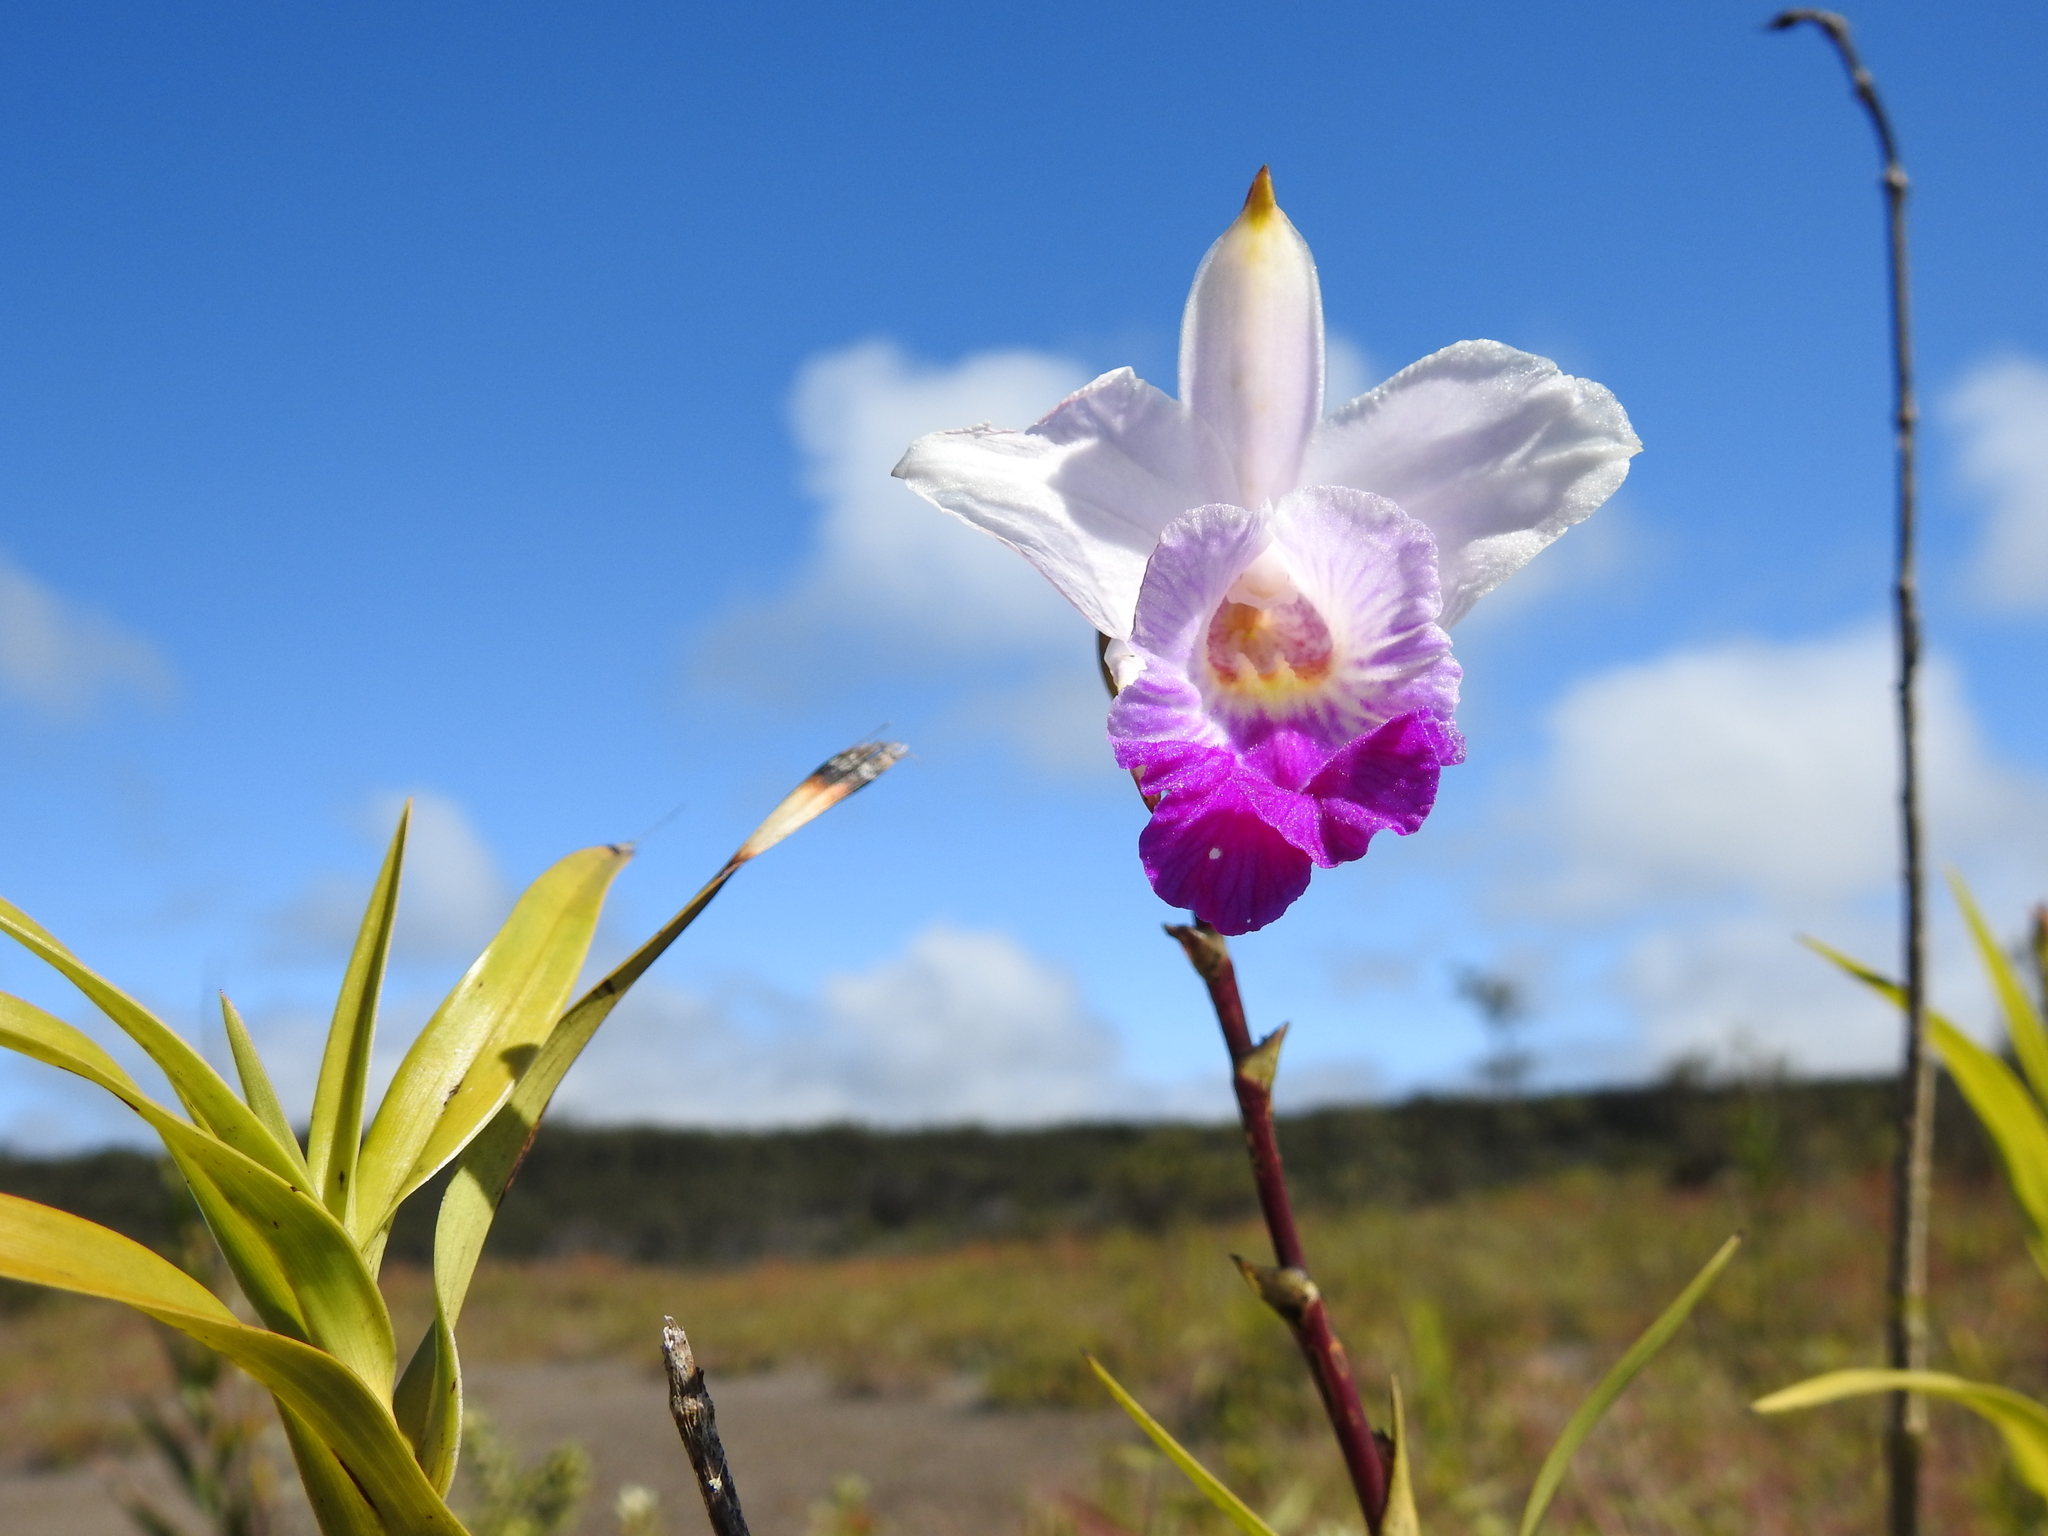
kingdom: Plantae
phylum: Tracheophyta
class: Liliopsida
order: Asparagales
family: Orchidaceae
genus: Arundina
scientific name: Arundina graminifolia
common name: Bamboo orchid
